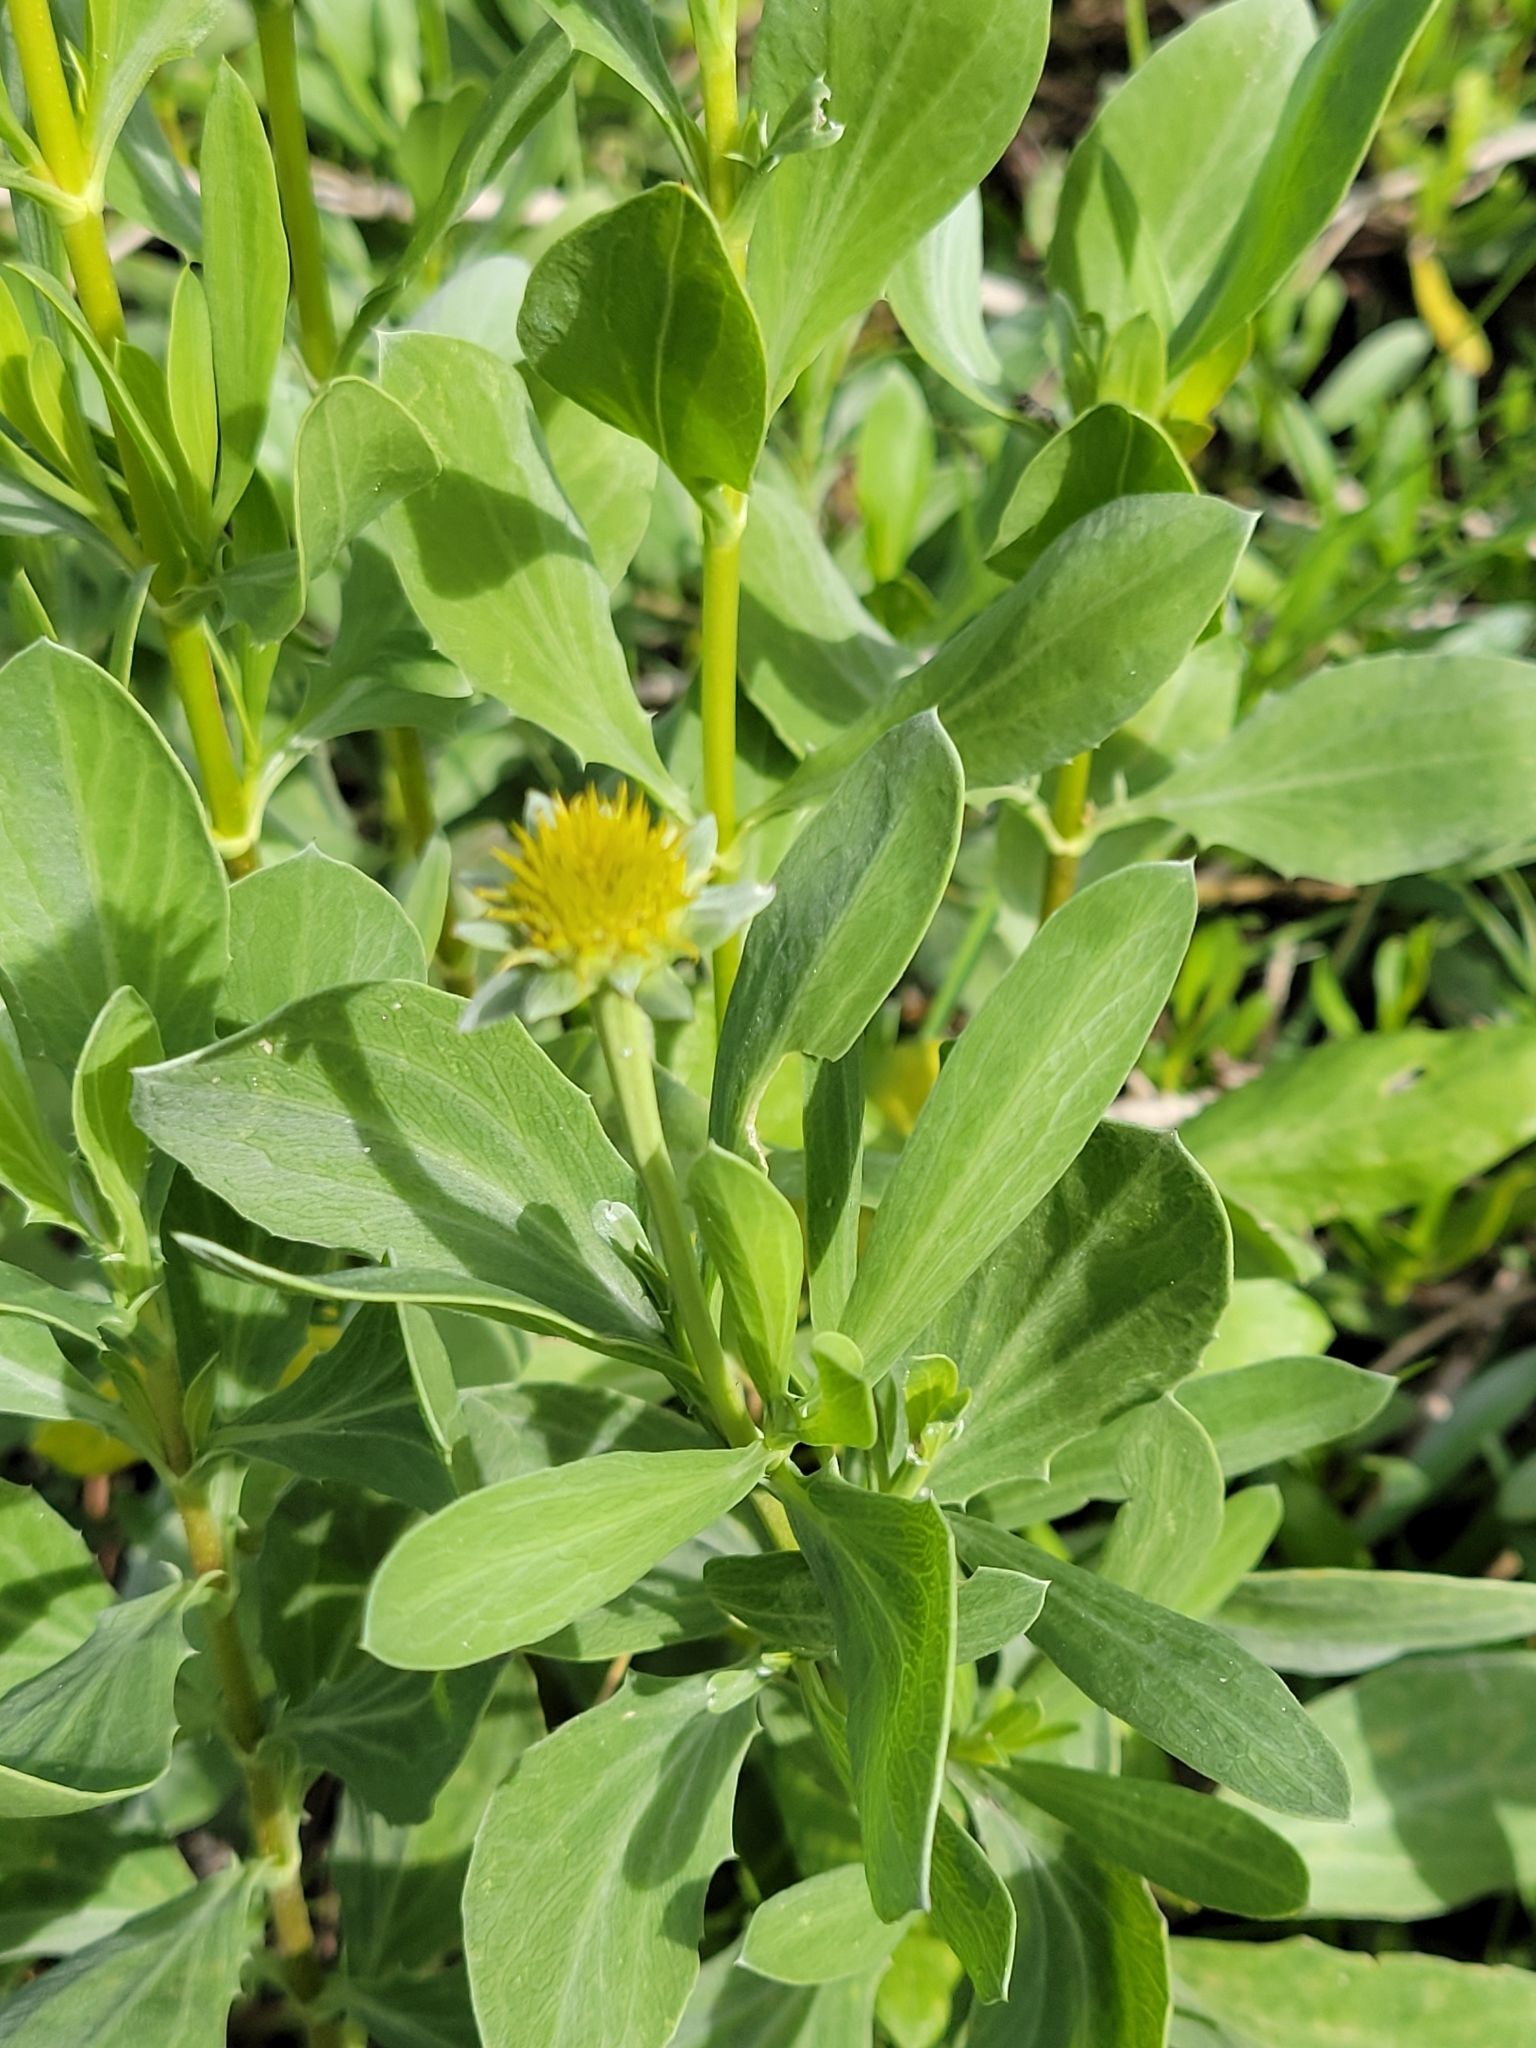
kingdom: Plantae
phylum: Tracheophyta
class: Magnoliopsida
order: Asterales
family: Asteraceae
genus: Borrichia
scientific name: Borrichia frutescens
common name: Sea oxeye
